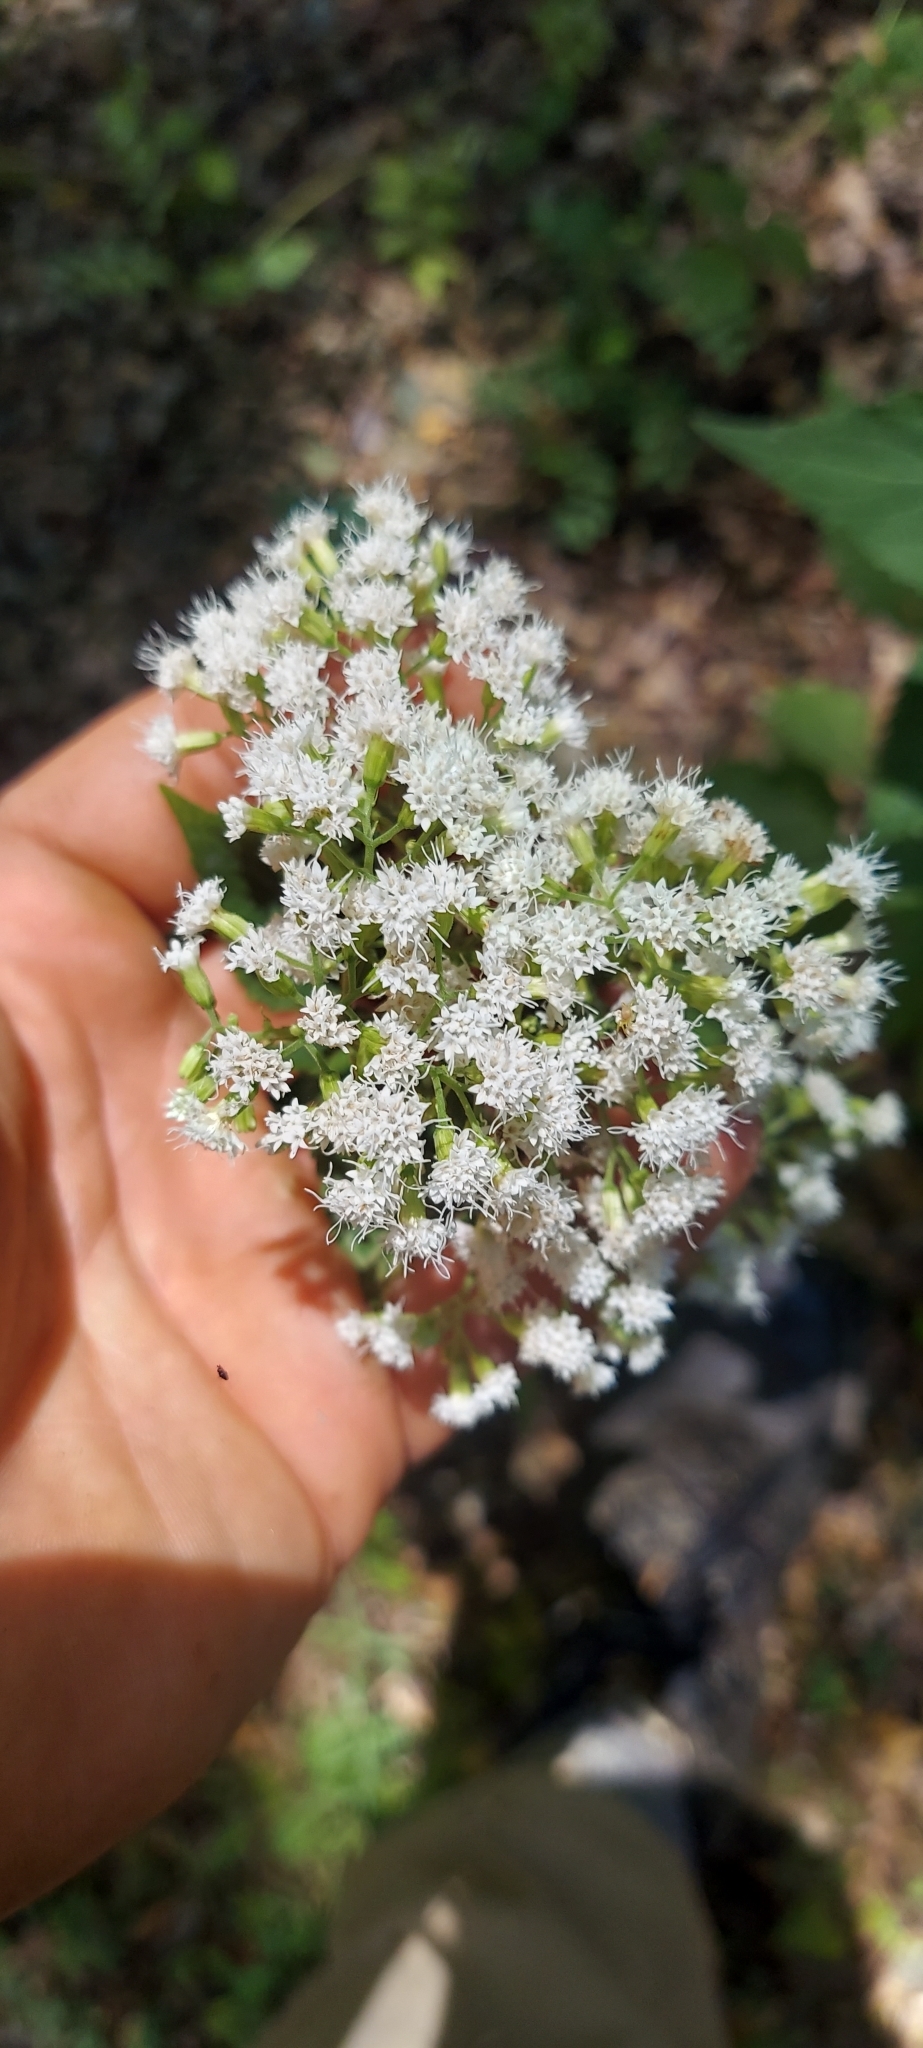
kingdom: Plantae
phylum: Tracheophyta
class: Magnoliopsida
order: Asterales
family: Asteraceae
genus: Ageratina
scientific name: Ageratina altissima
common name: White snakeroot
